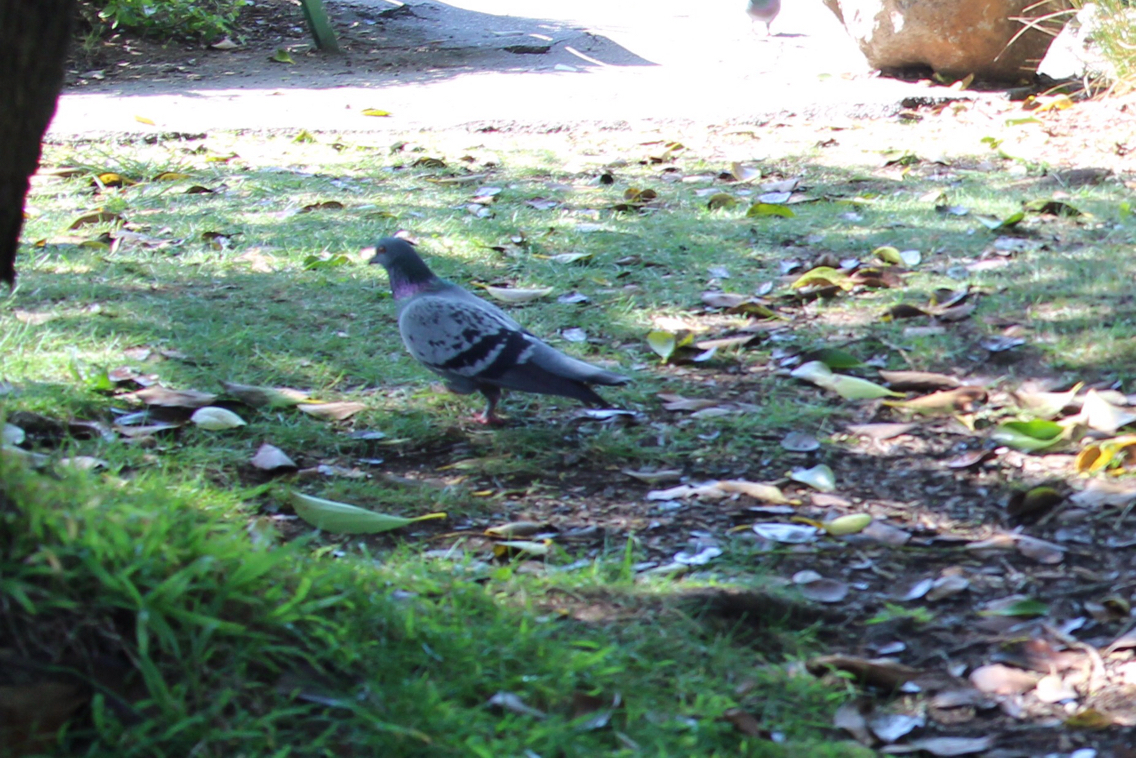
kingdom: Animalia
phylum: Chordata
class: Aves
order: Columbiformes
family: Columbidae
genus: Columba
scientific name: Columba livia
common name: Rock pigeon
